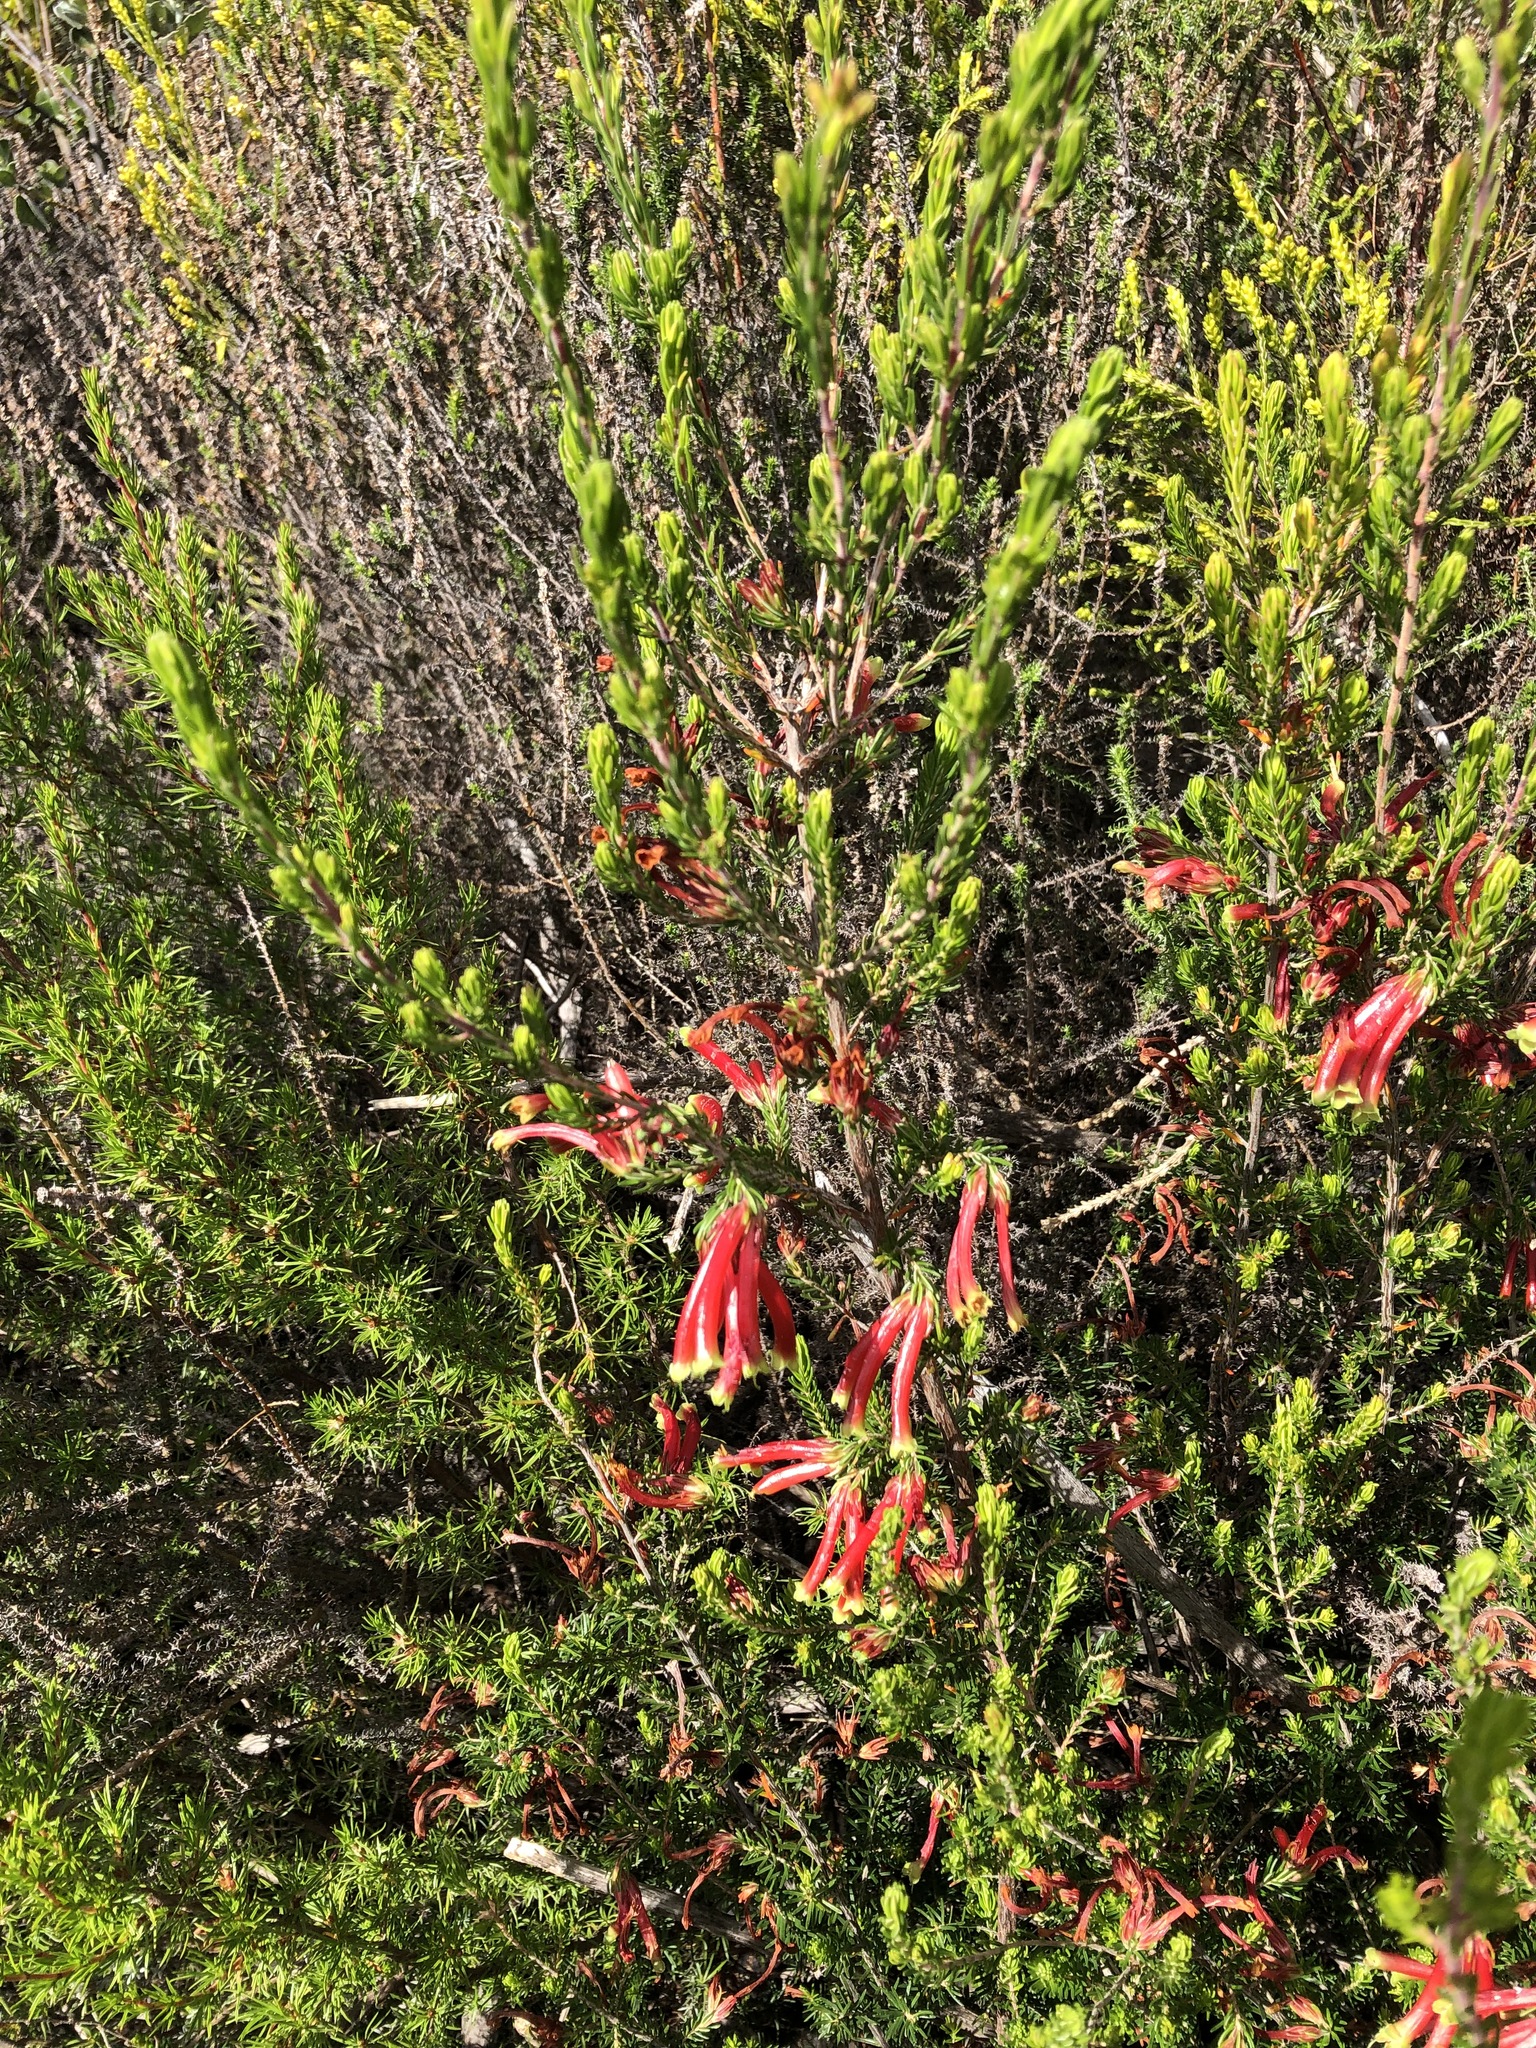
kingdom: Plantae
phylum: Tracheophyta
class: Magnoliopsida
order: Ericales
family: Ericaceae
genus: Erica
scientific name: Erica versicolor
